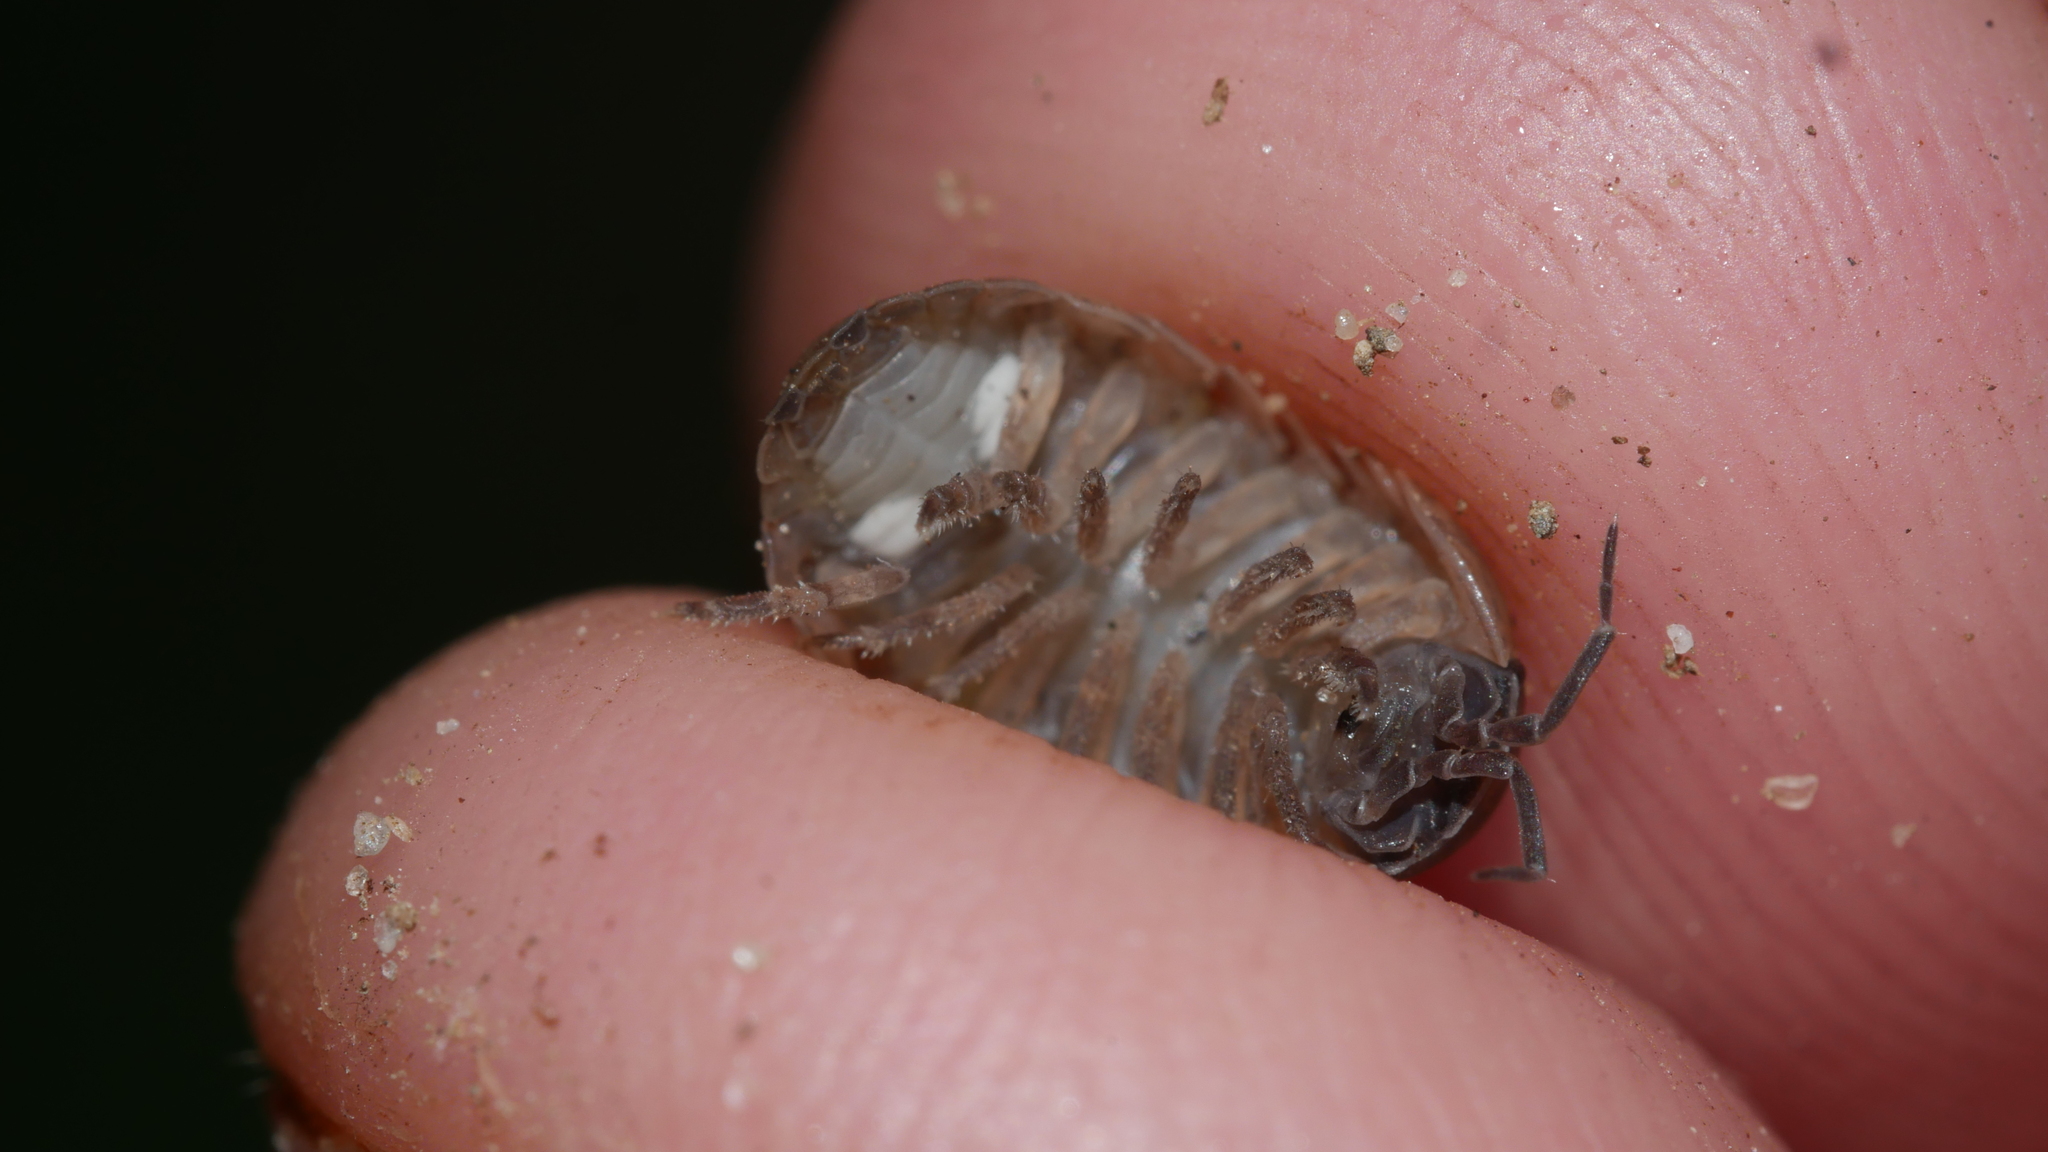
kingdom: Animalia
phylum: Arthropoda
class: Malacostraca
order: Isopoda
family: Armadillidiidae
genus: Armadillidium
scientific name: Armadillidium vulgare
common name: Common pill woodlouse
